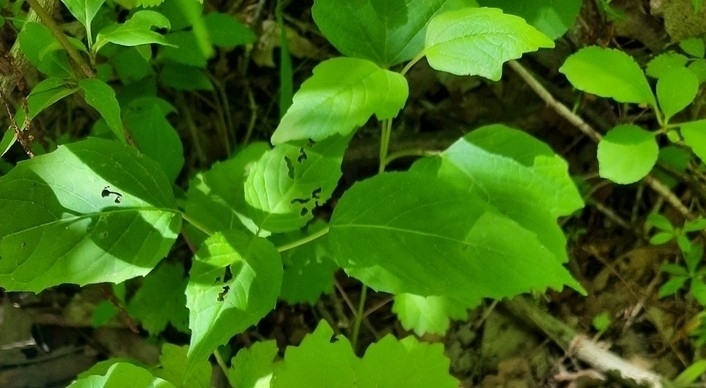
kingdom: Plantae
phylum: Tracheophyta
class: Magnoliopsida
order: Myrtales
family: Onagraceae
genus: Circaea
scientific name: Circaea canadensis
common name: Broad-leaved enchanter's nightshade
